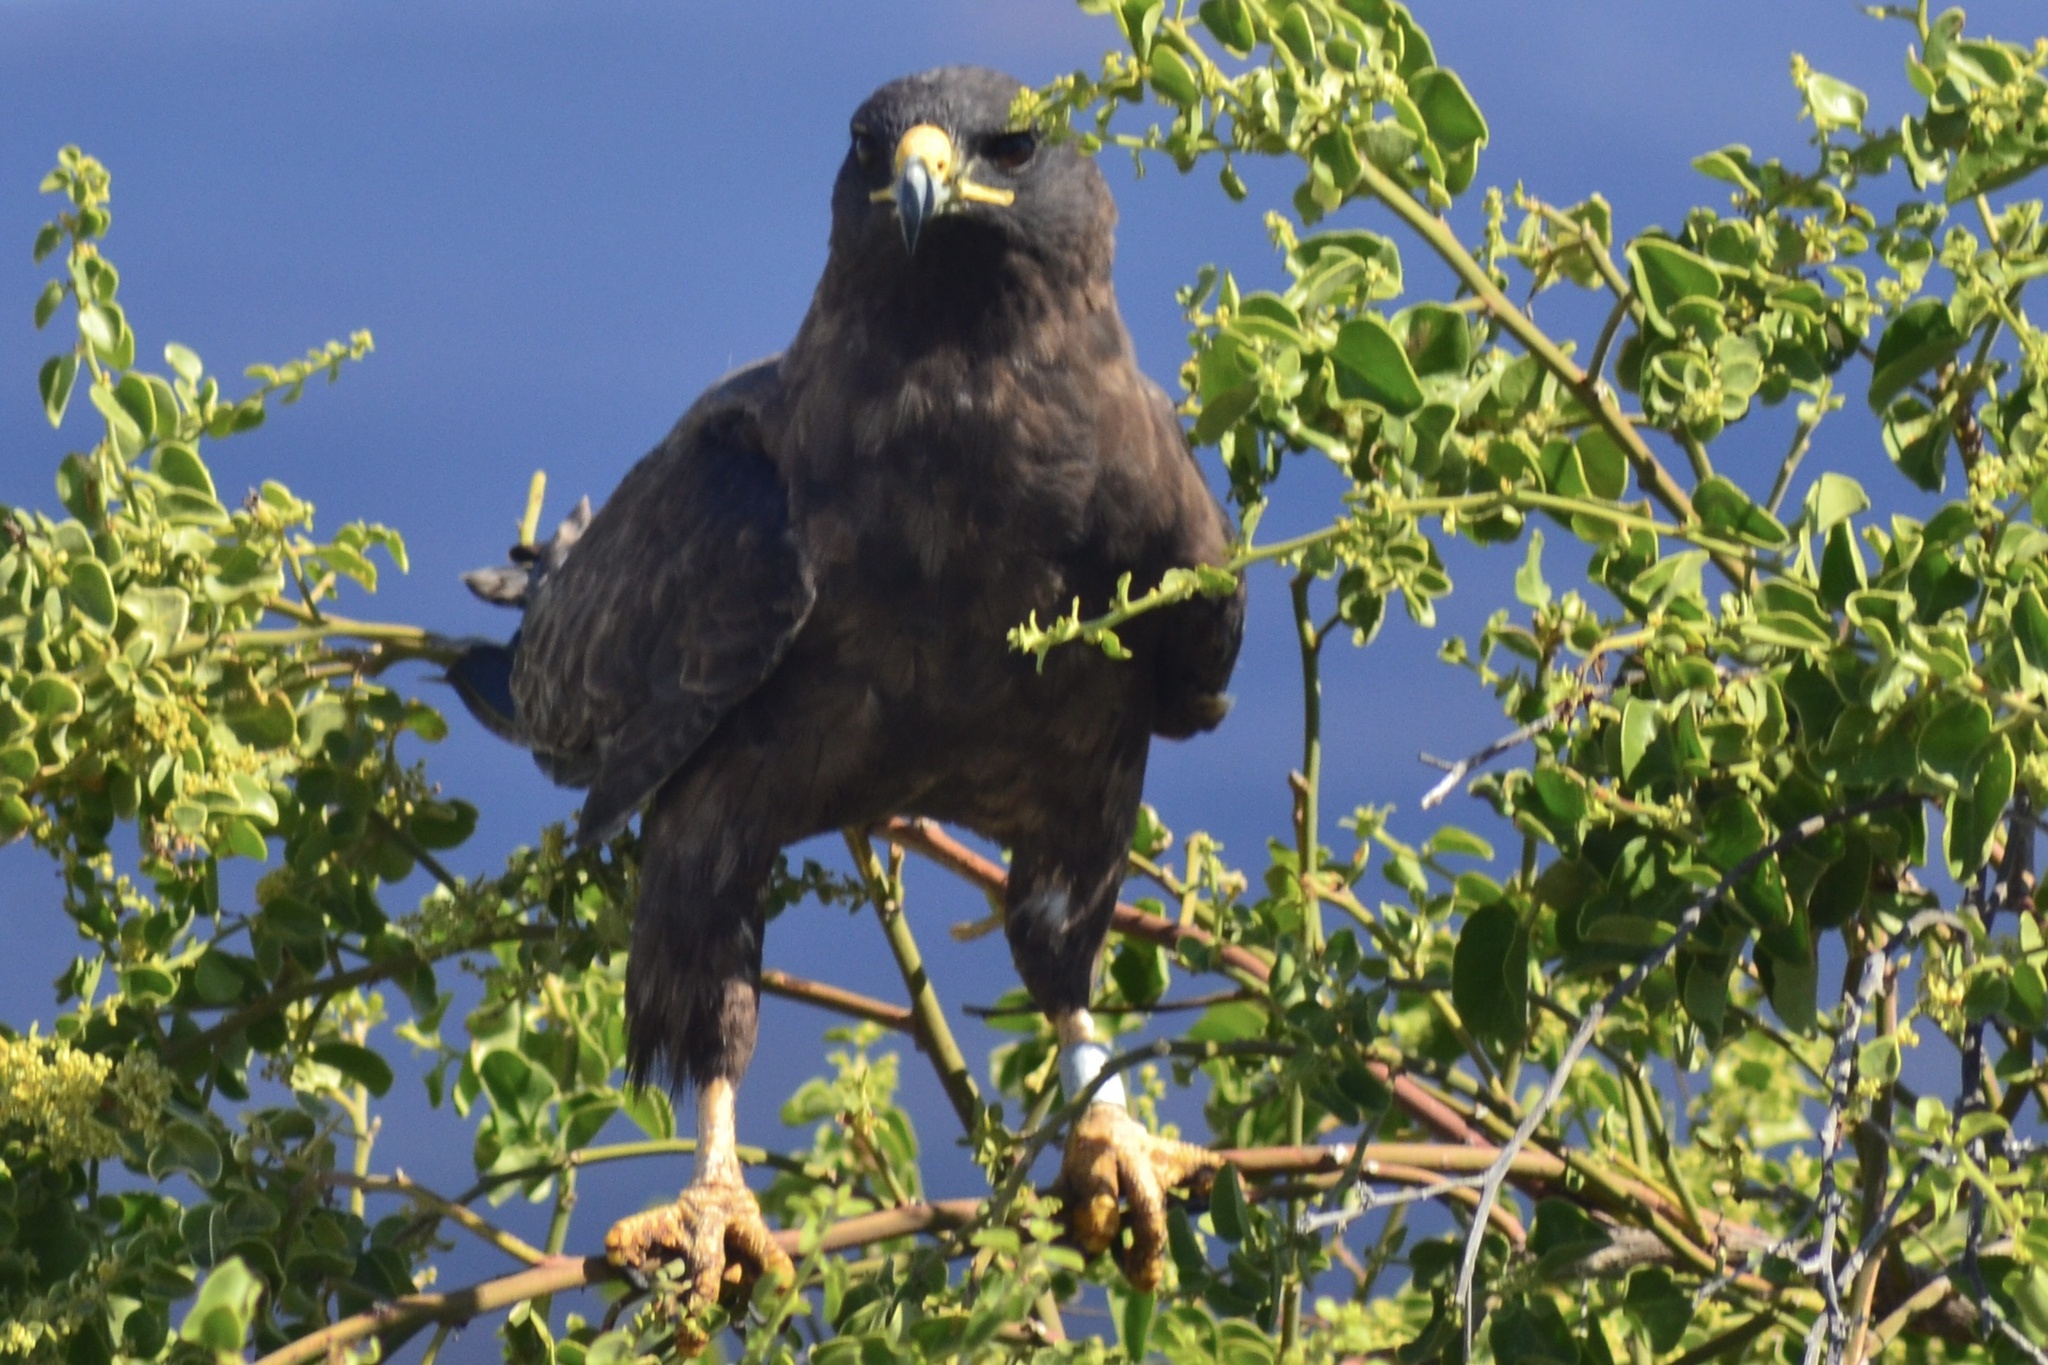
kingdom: Animalia
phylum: Chordata
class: Aves
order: Accipitriformes
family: Accipitridae
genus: Buteo
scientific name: Buteo galapagoensis
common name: Galapagos hawk
